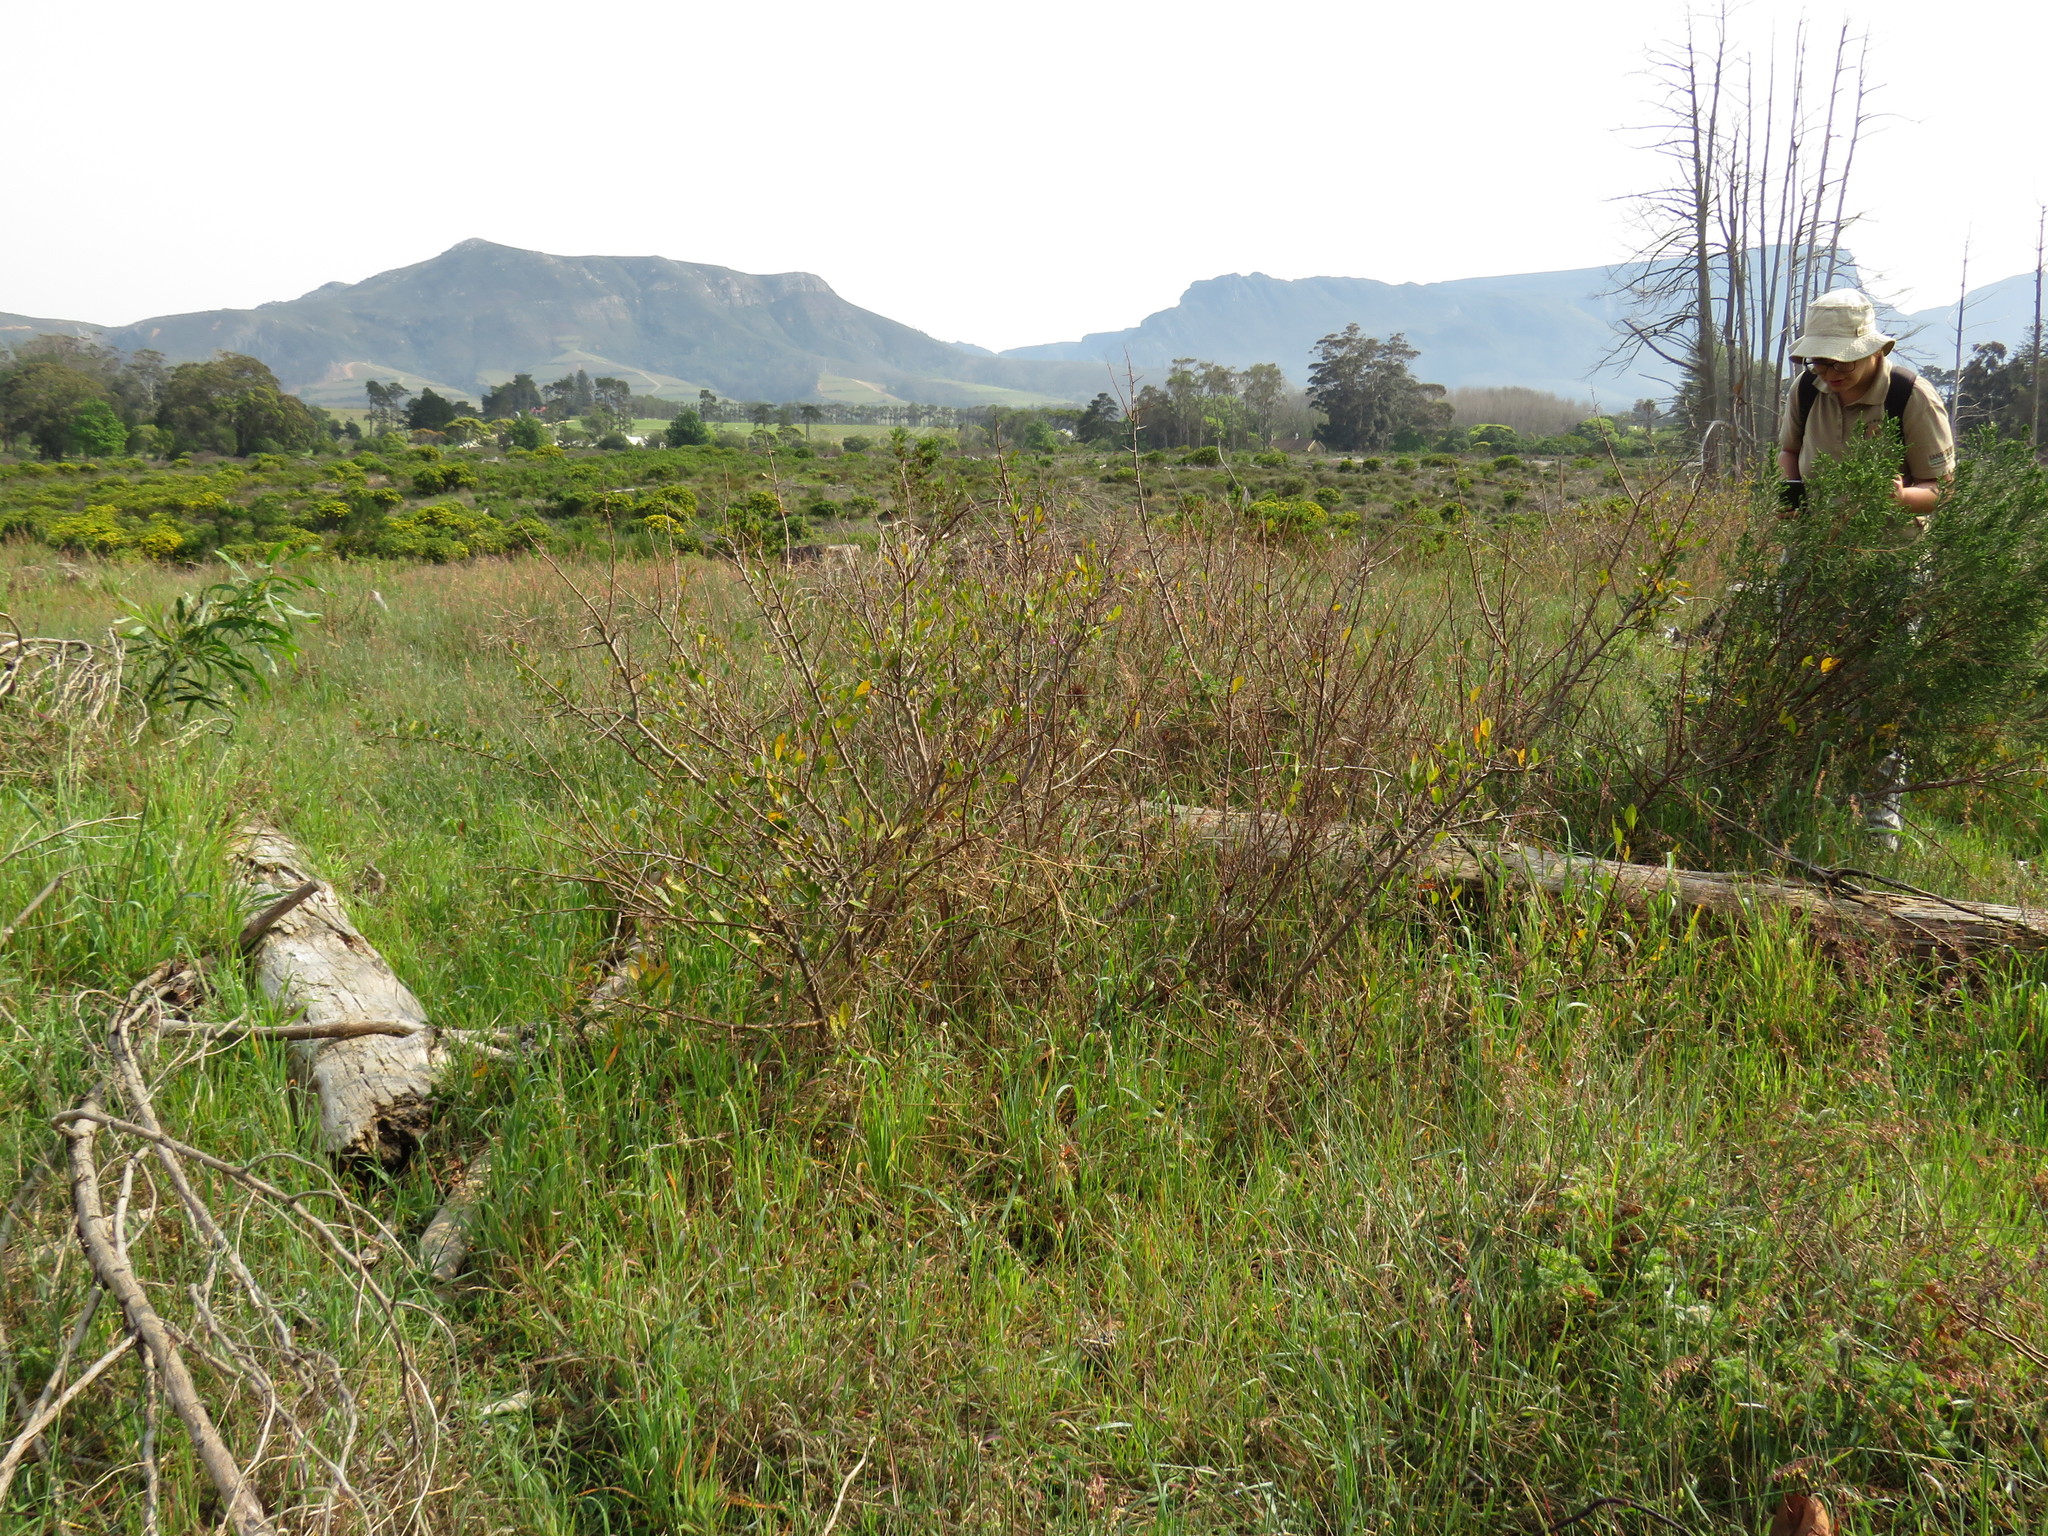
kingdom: Plantae
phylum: Tracheophyta
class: Magnoliopsida
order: Sapindales
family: Anacardiaceae
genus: Searsia
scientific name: Searsia laevigata
